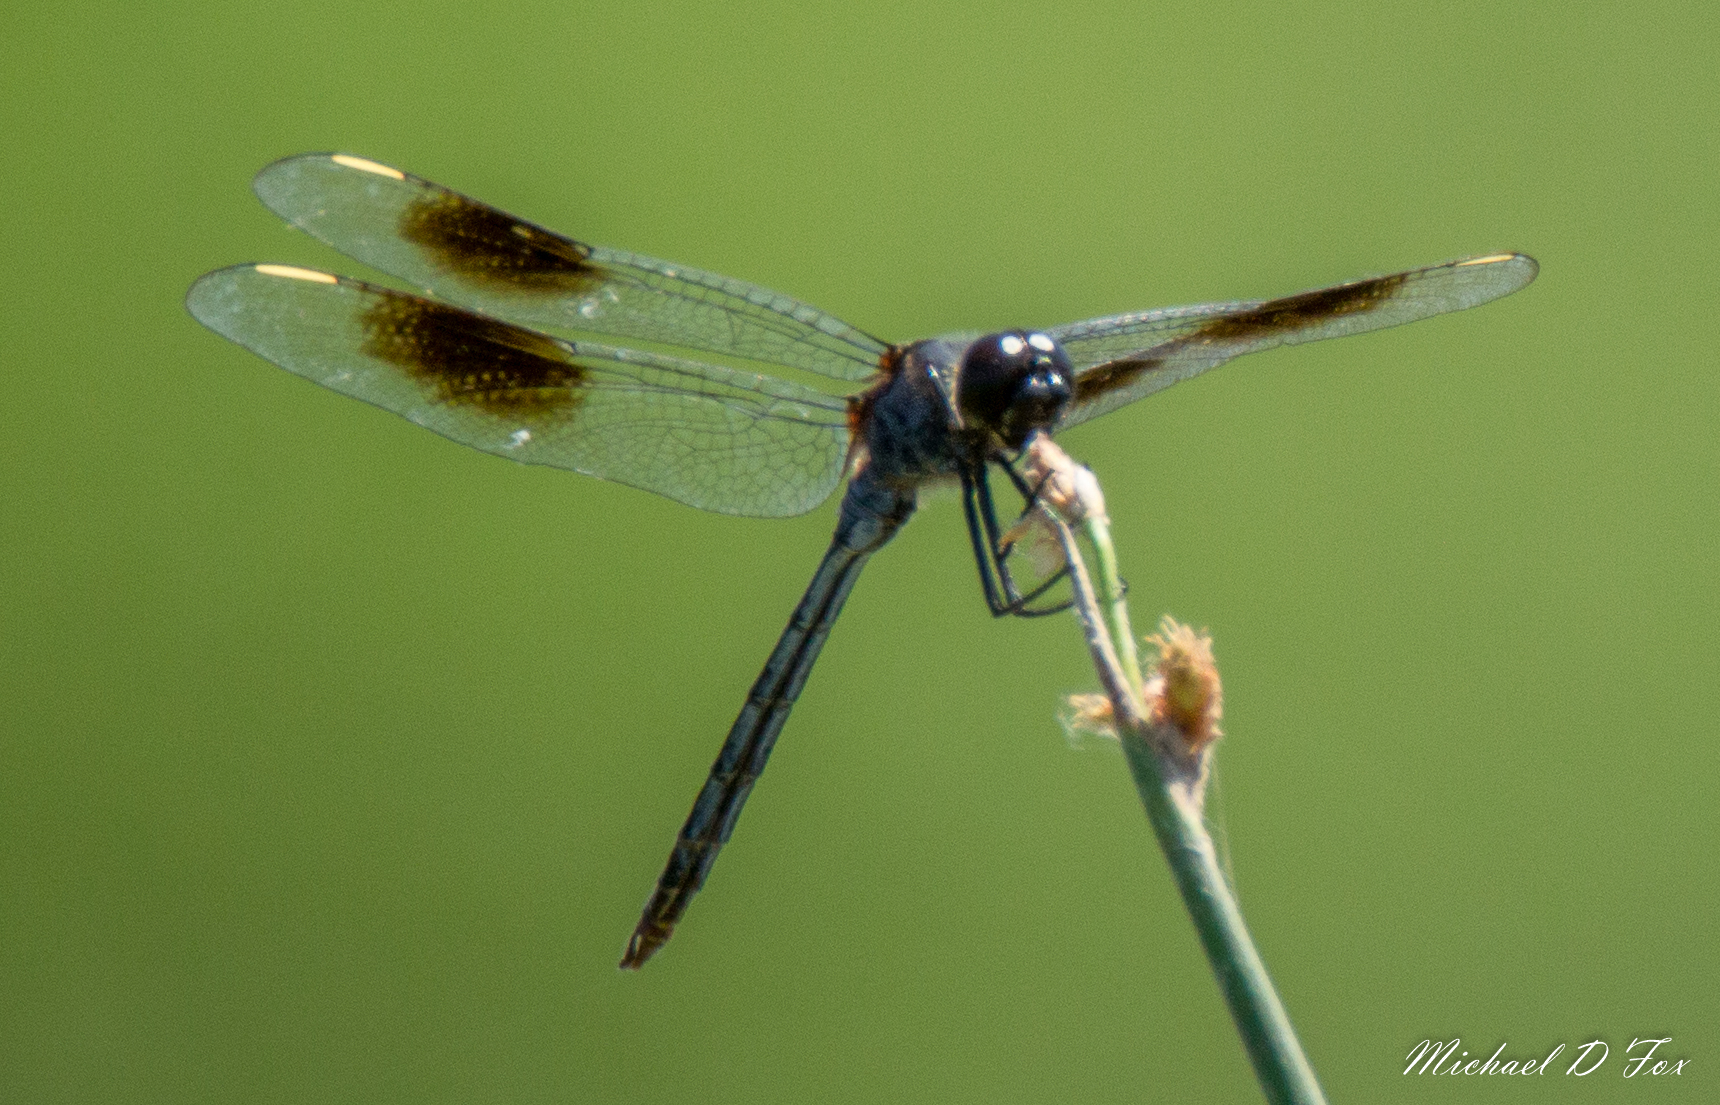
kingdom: Animalia
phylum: Arthropoda
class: Insecta
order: Odonata
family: Libellulidae
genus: Brachymesia
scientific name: Brachymesia gravida
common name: Four-spotted pennant
